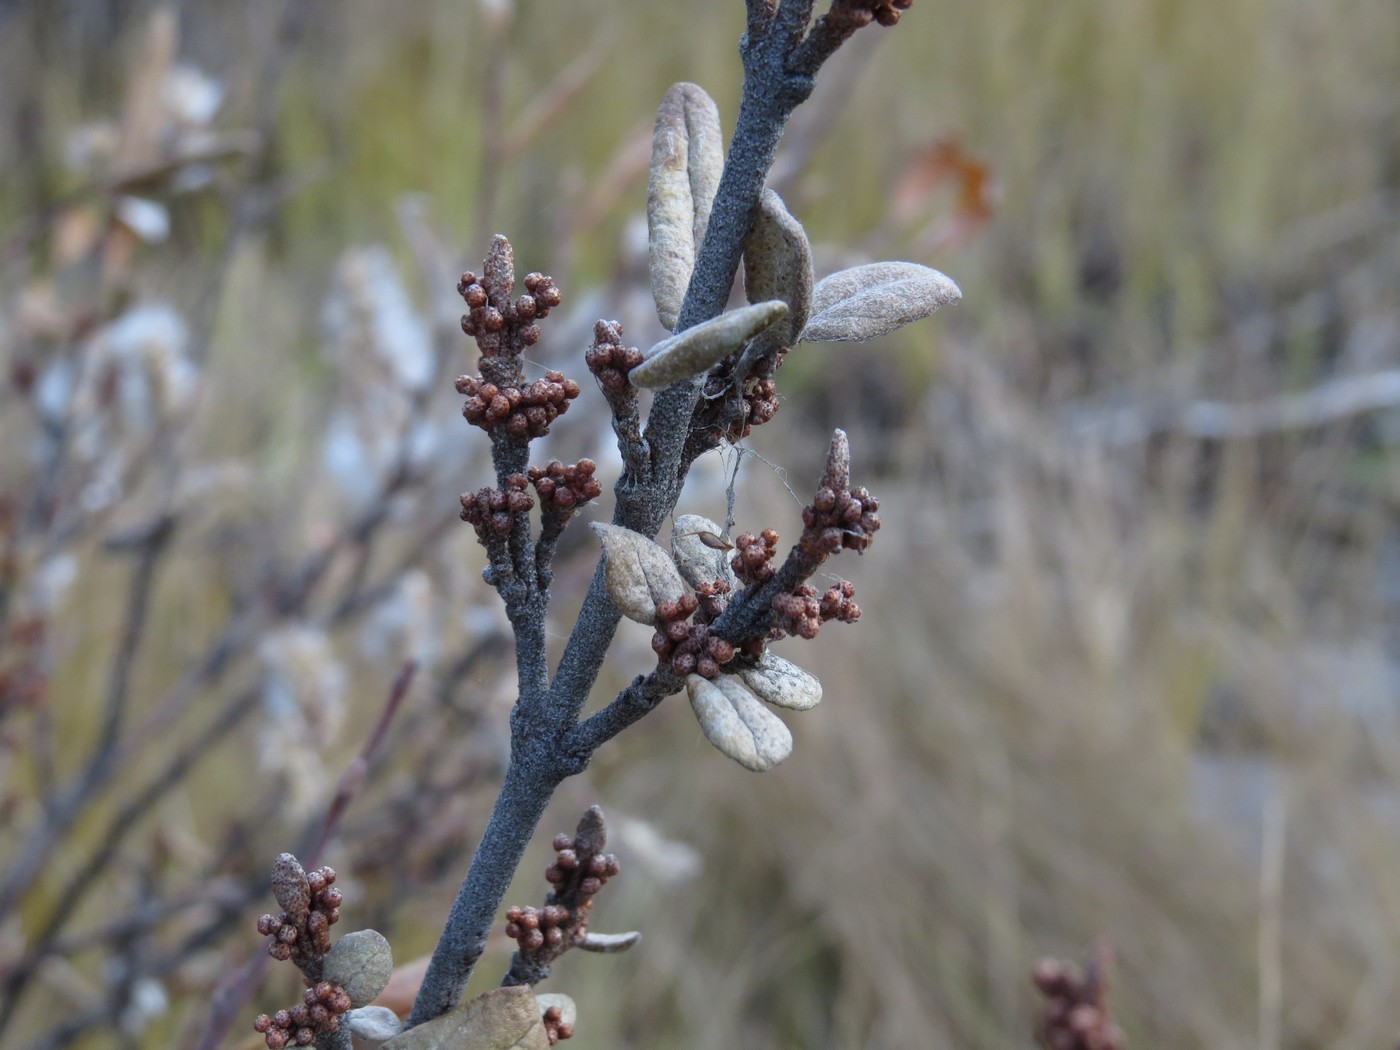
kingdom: Plantae
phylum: Tracheophyta
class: Magnoliopsida
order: Rosales
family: Elaeagnaceae
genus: Shepherdia
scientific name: Shepherdia argentea
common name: Silver buffaloberry
